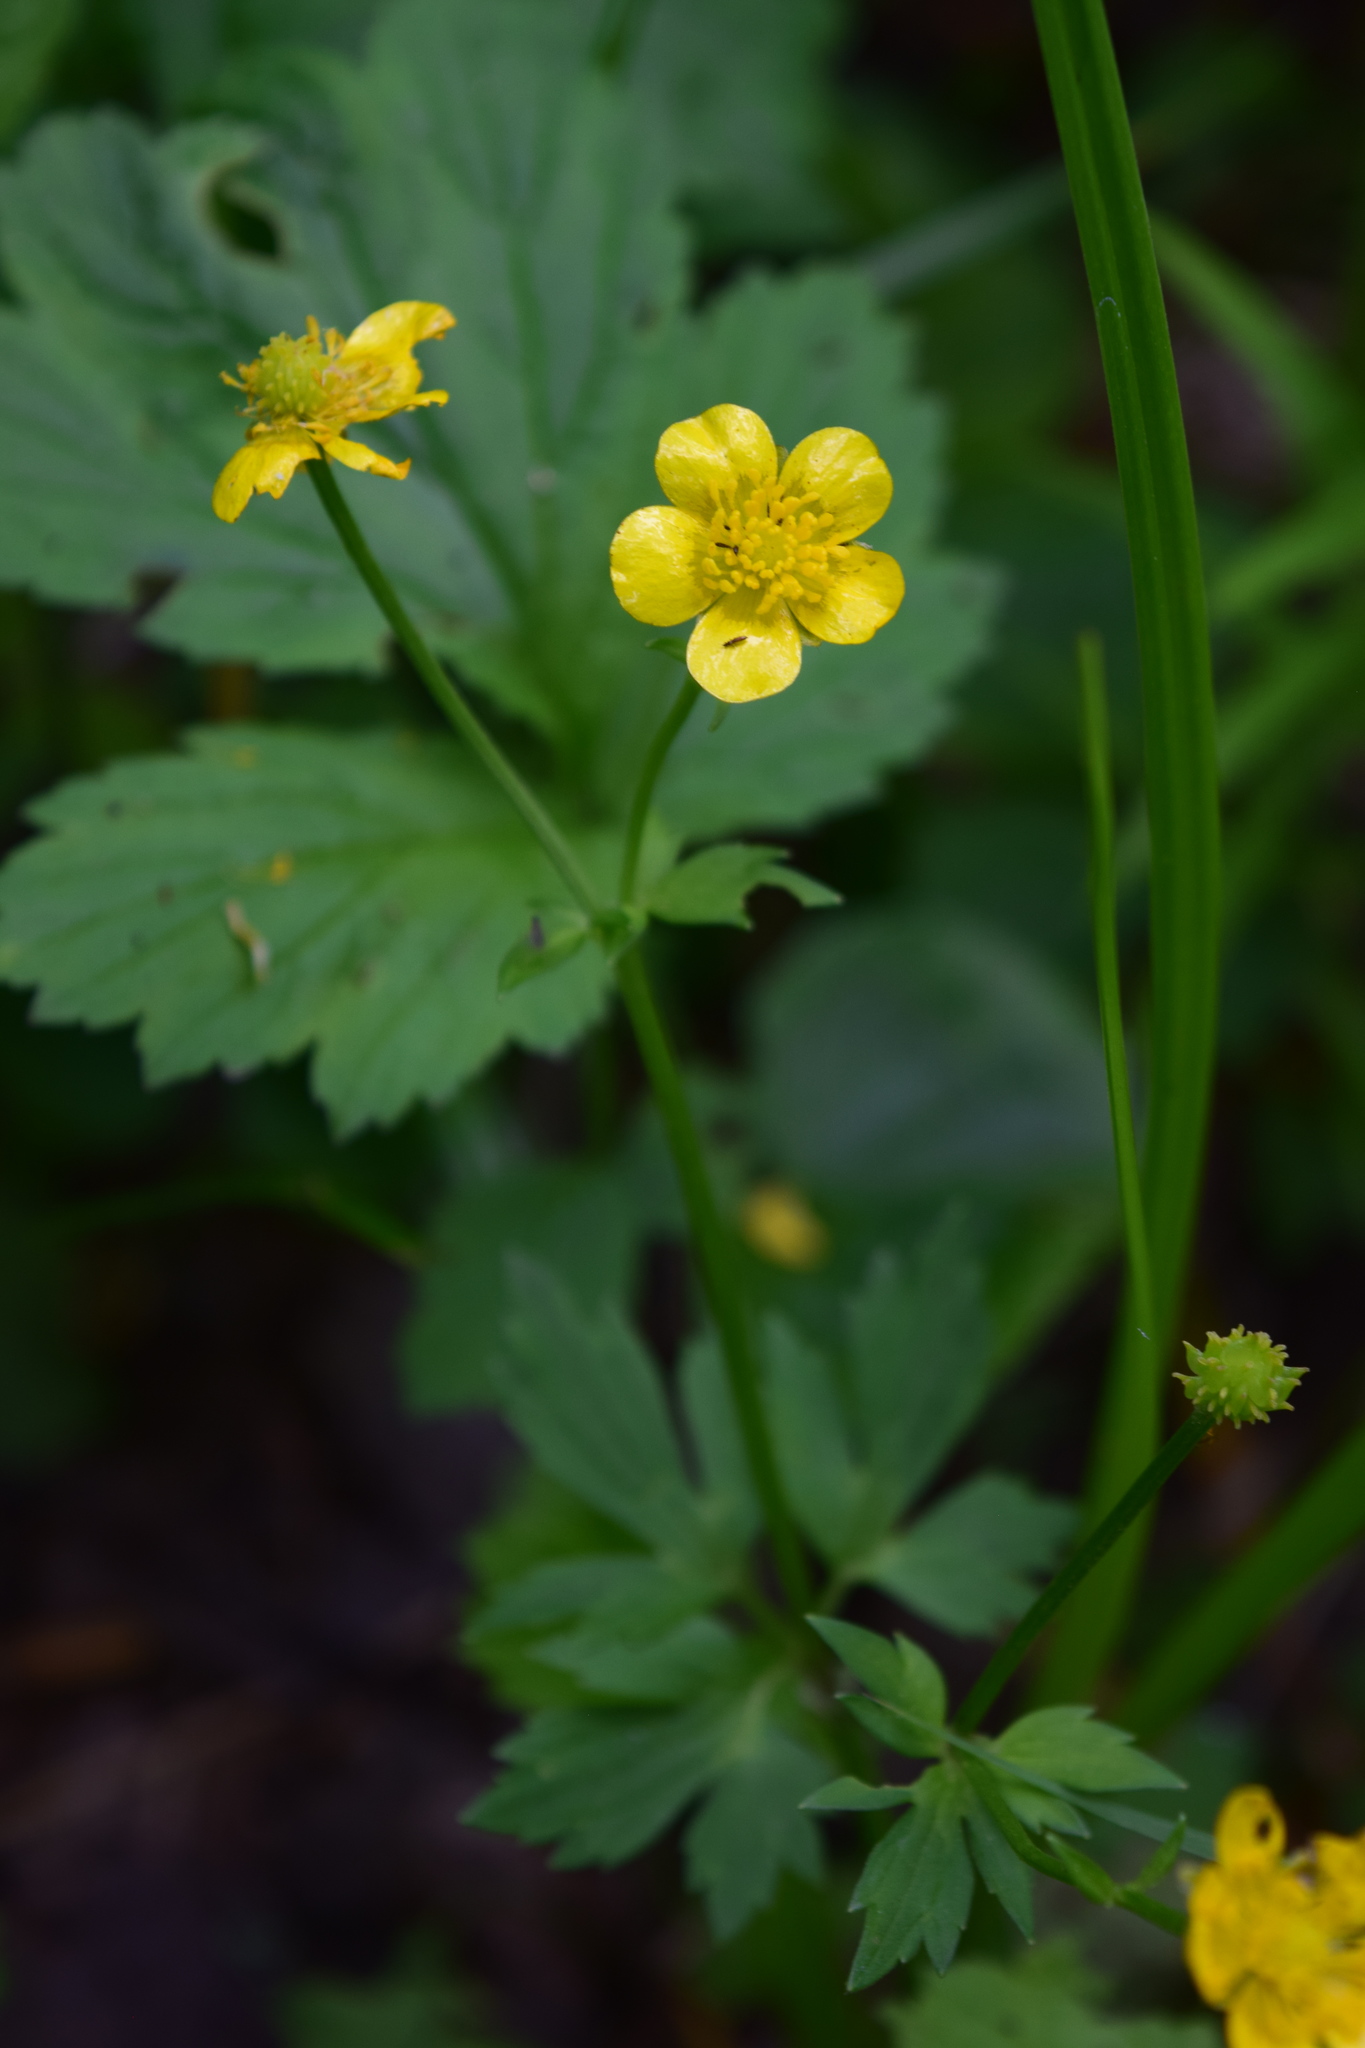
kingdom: Plantae
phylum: Tracheophyta
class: Magnoliopsida
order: Ranunculales
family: Ranunculaceae
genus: Ranunculus
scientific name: Ranunculus repens
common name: Creeping buttercup
